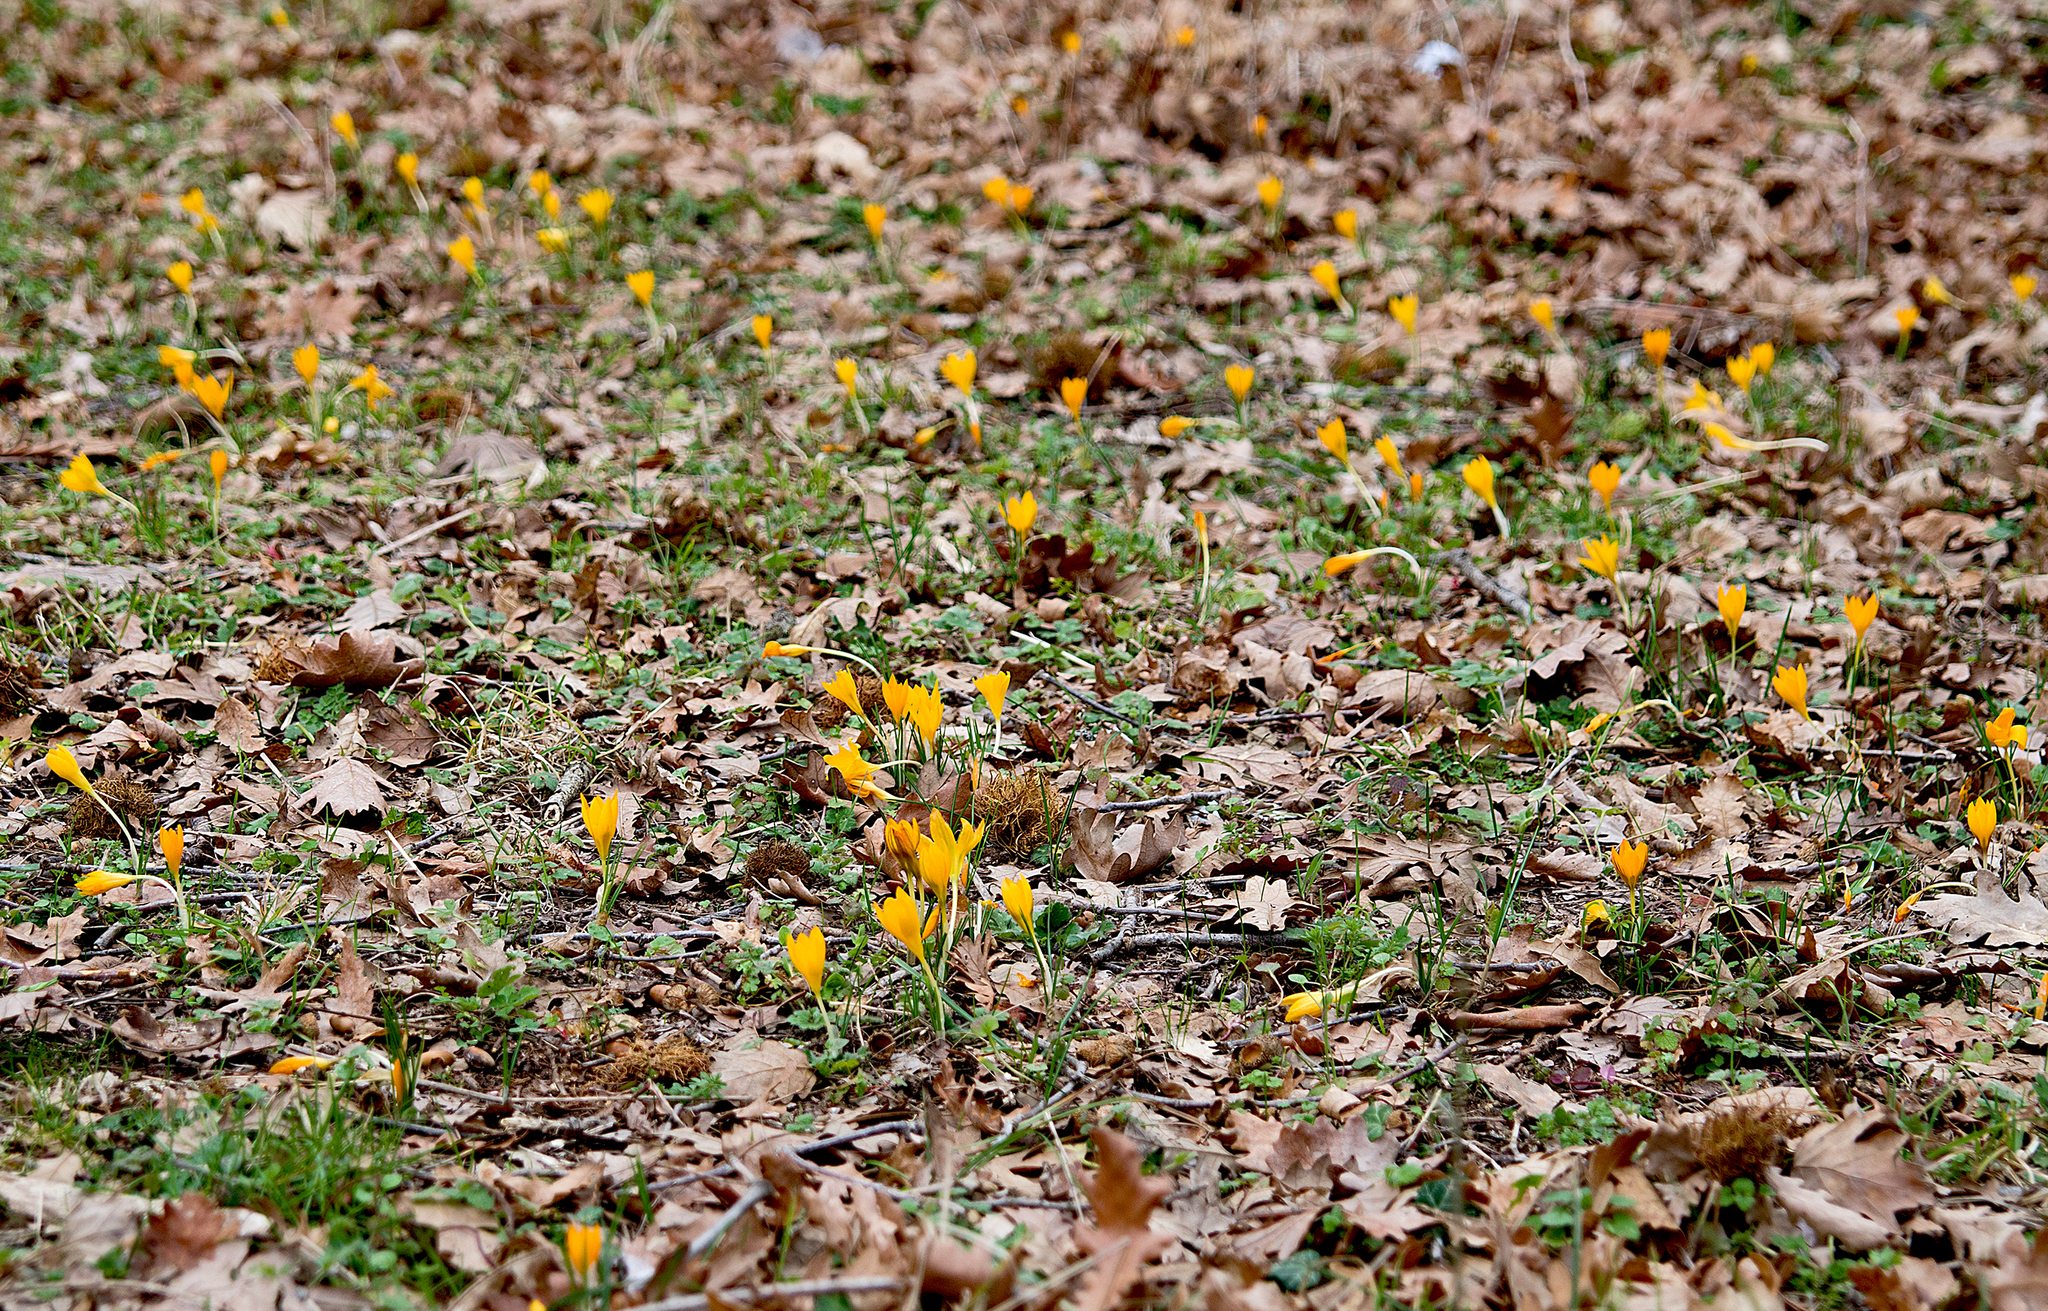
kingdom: Plantae
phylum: Tracheophyta
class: Liliopsida
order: Asparagales
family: Iridaceae
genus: Crocus
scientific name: Crocus flavus
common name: Yellow crocus
